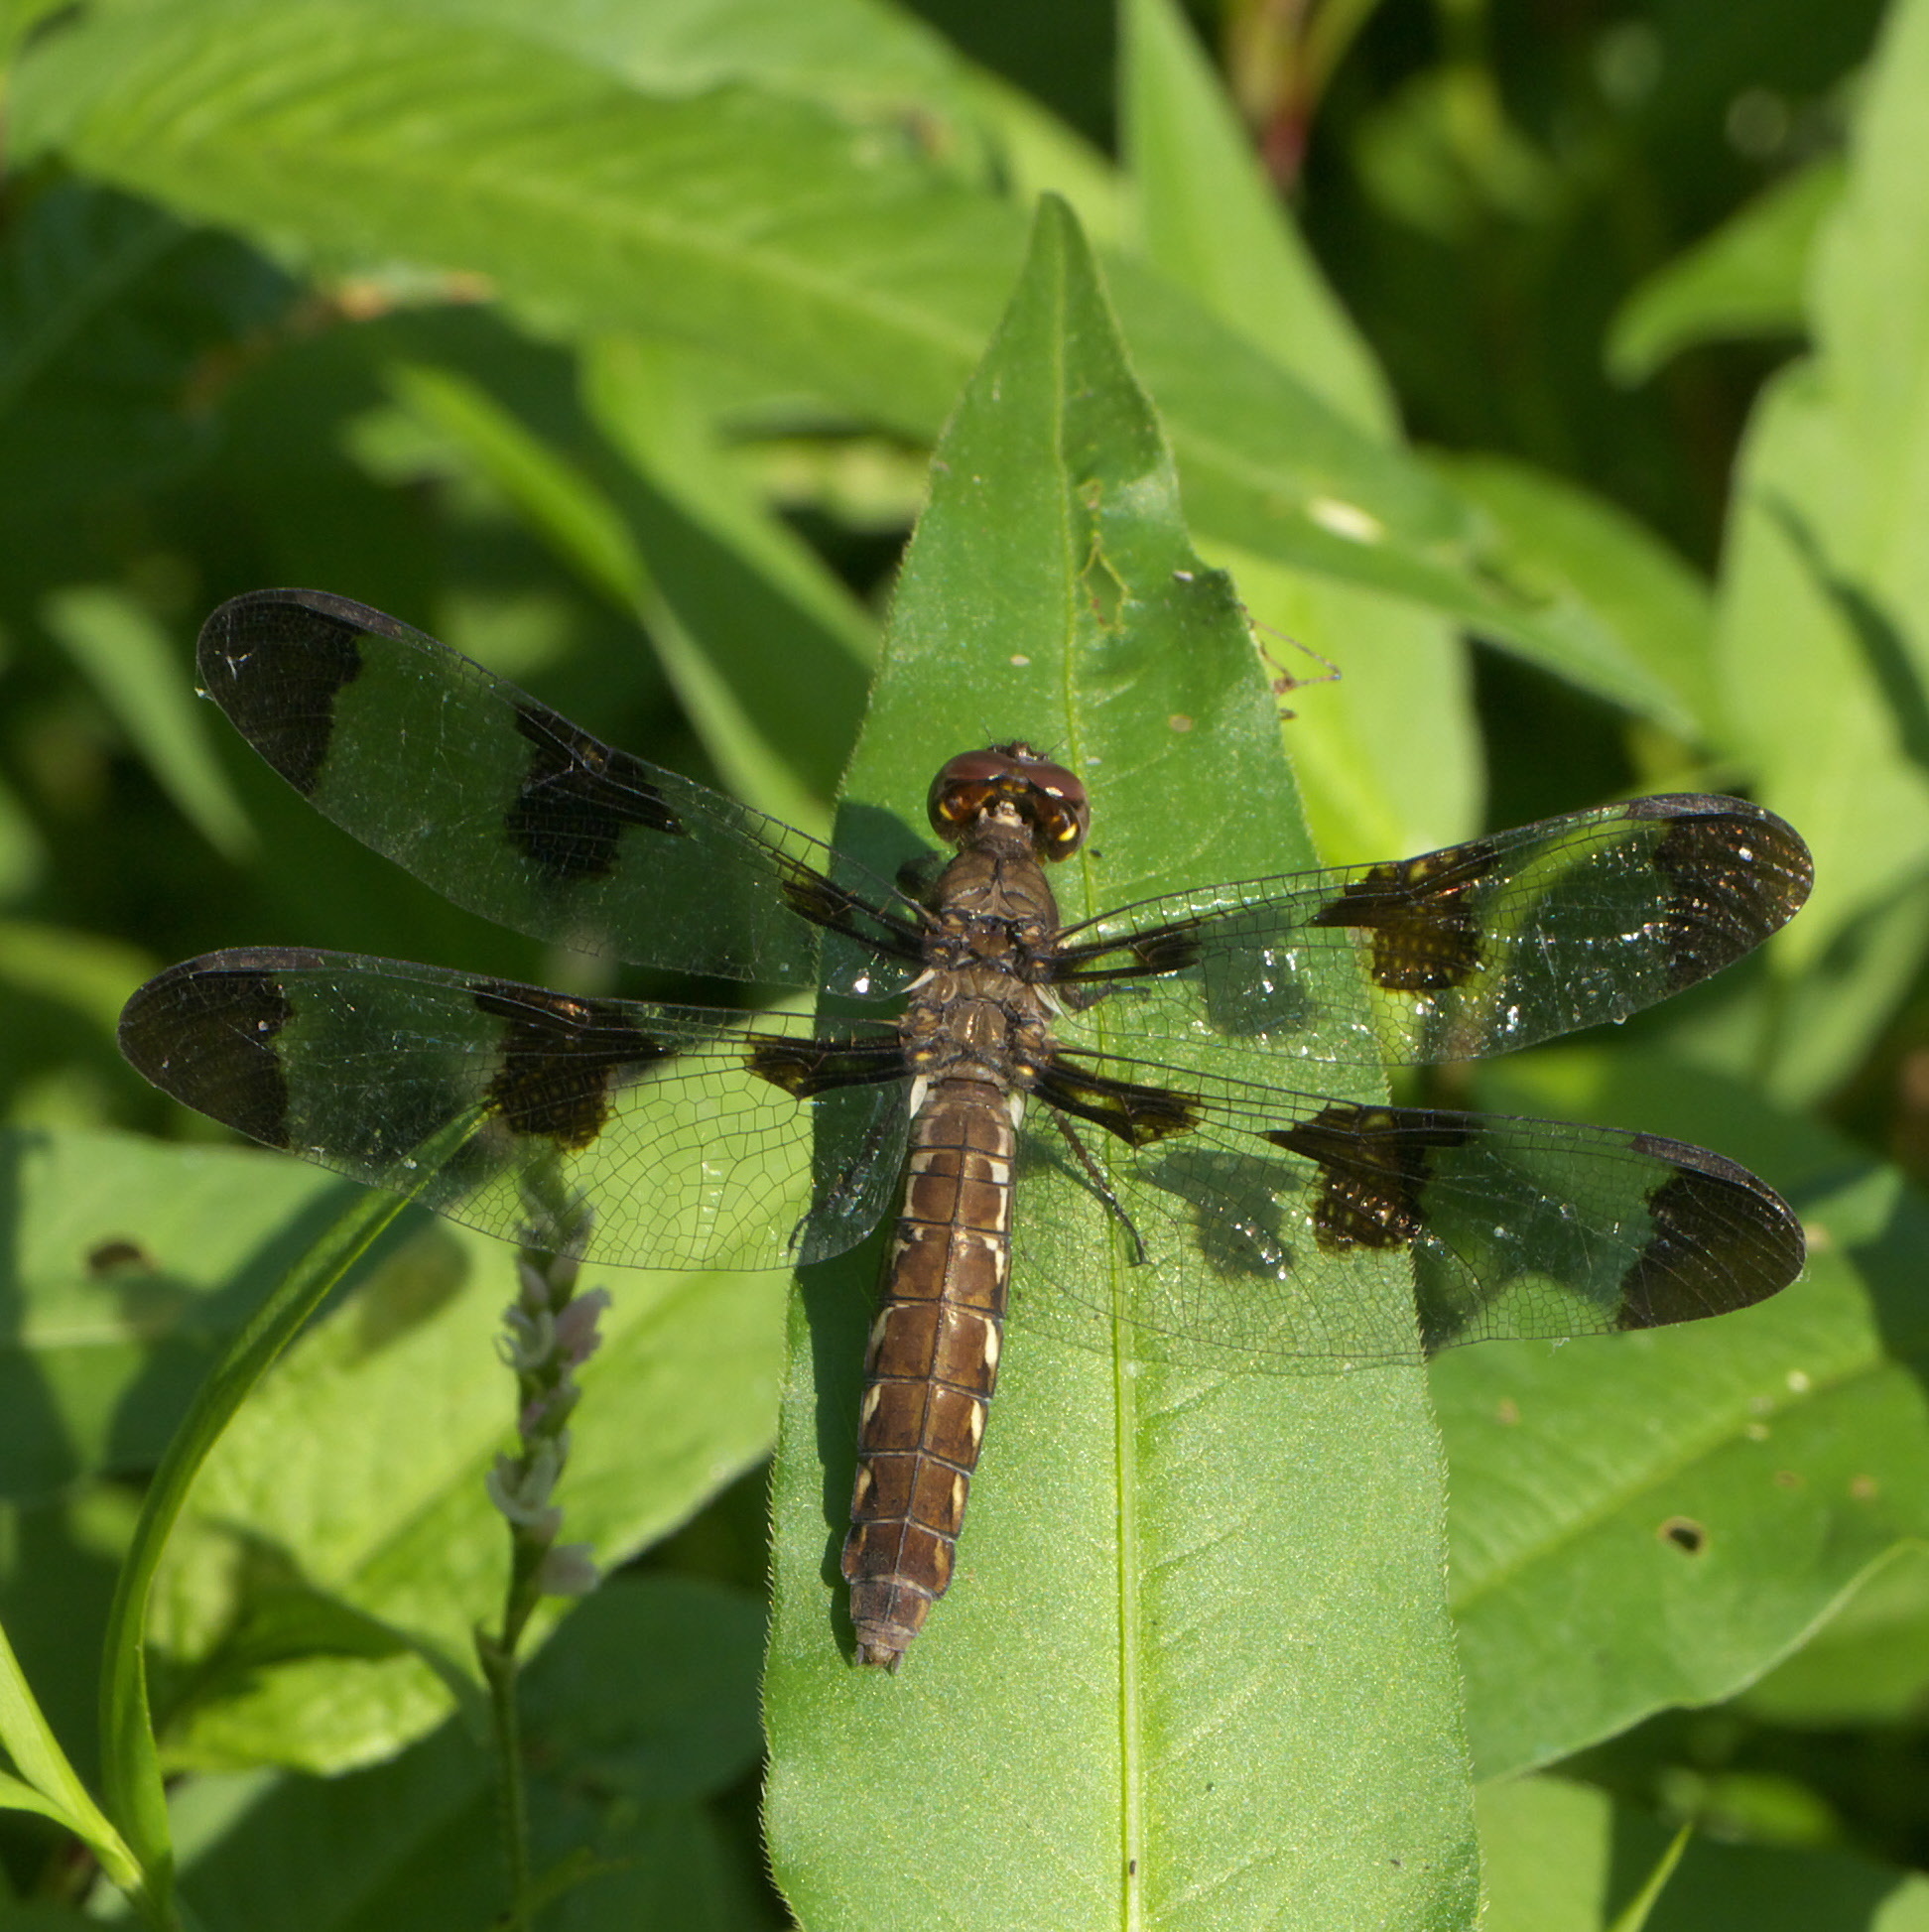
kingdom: Animalia
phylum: Arthropoda
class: Insecta
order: Odonata
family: Libellulidae
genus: Plathemis
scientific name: Plathemis lydia
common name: Common whitetail
